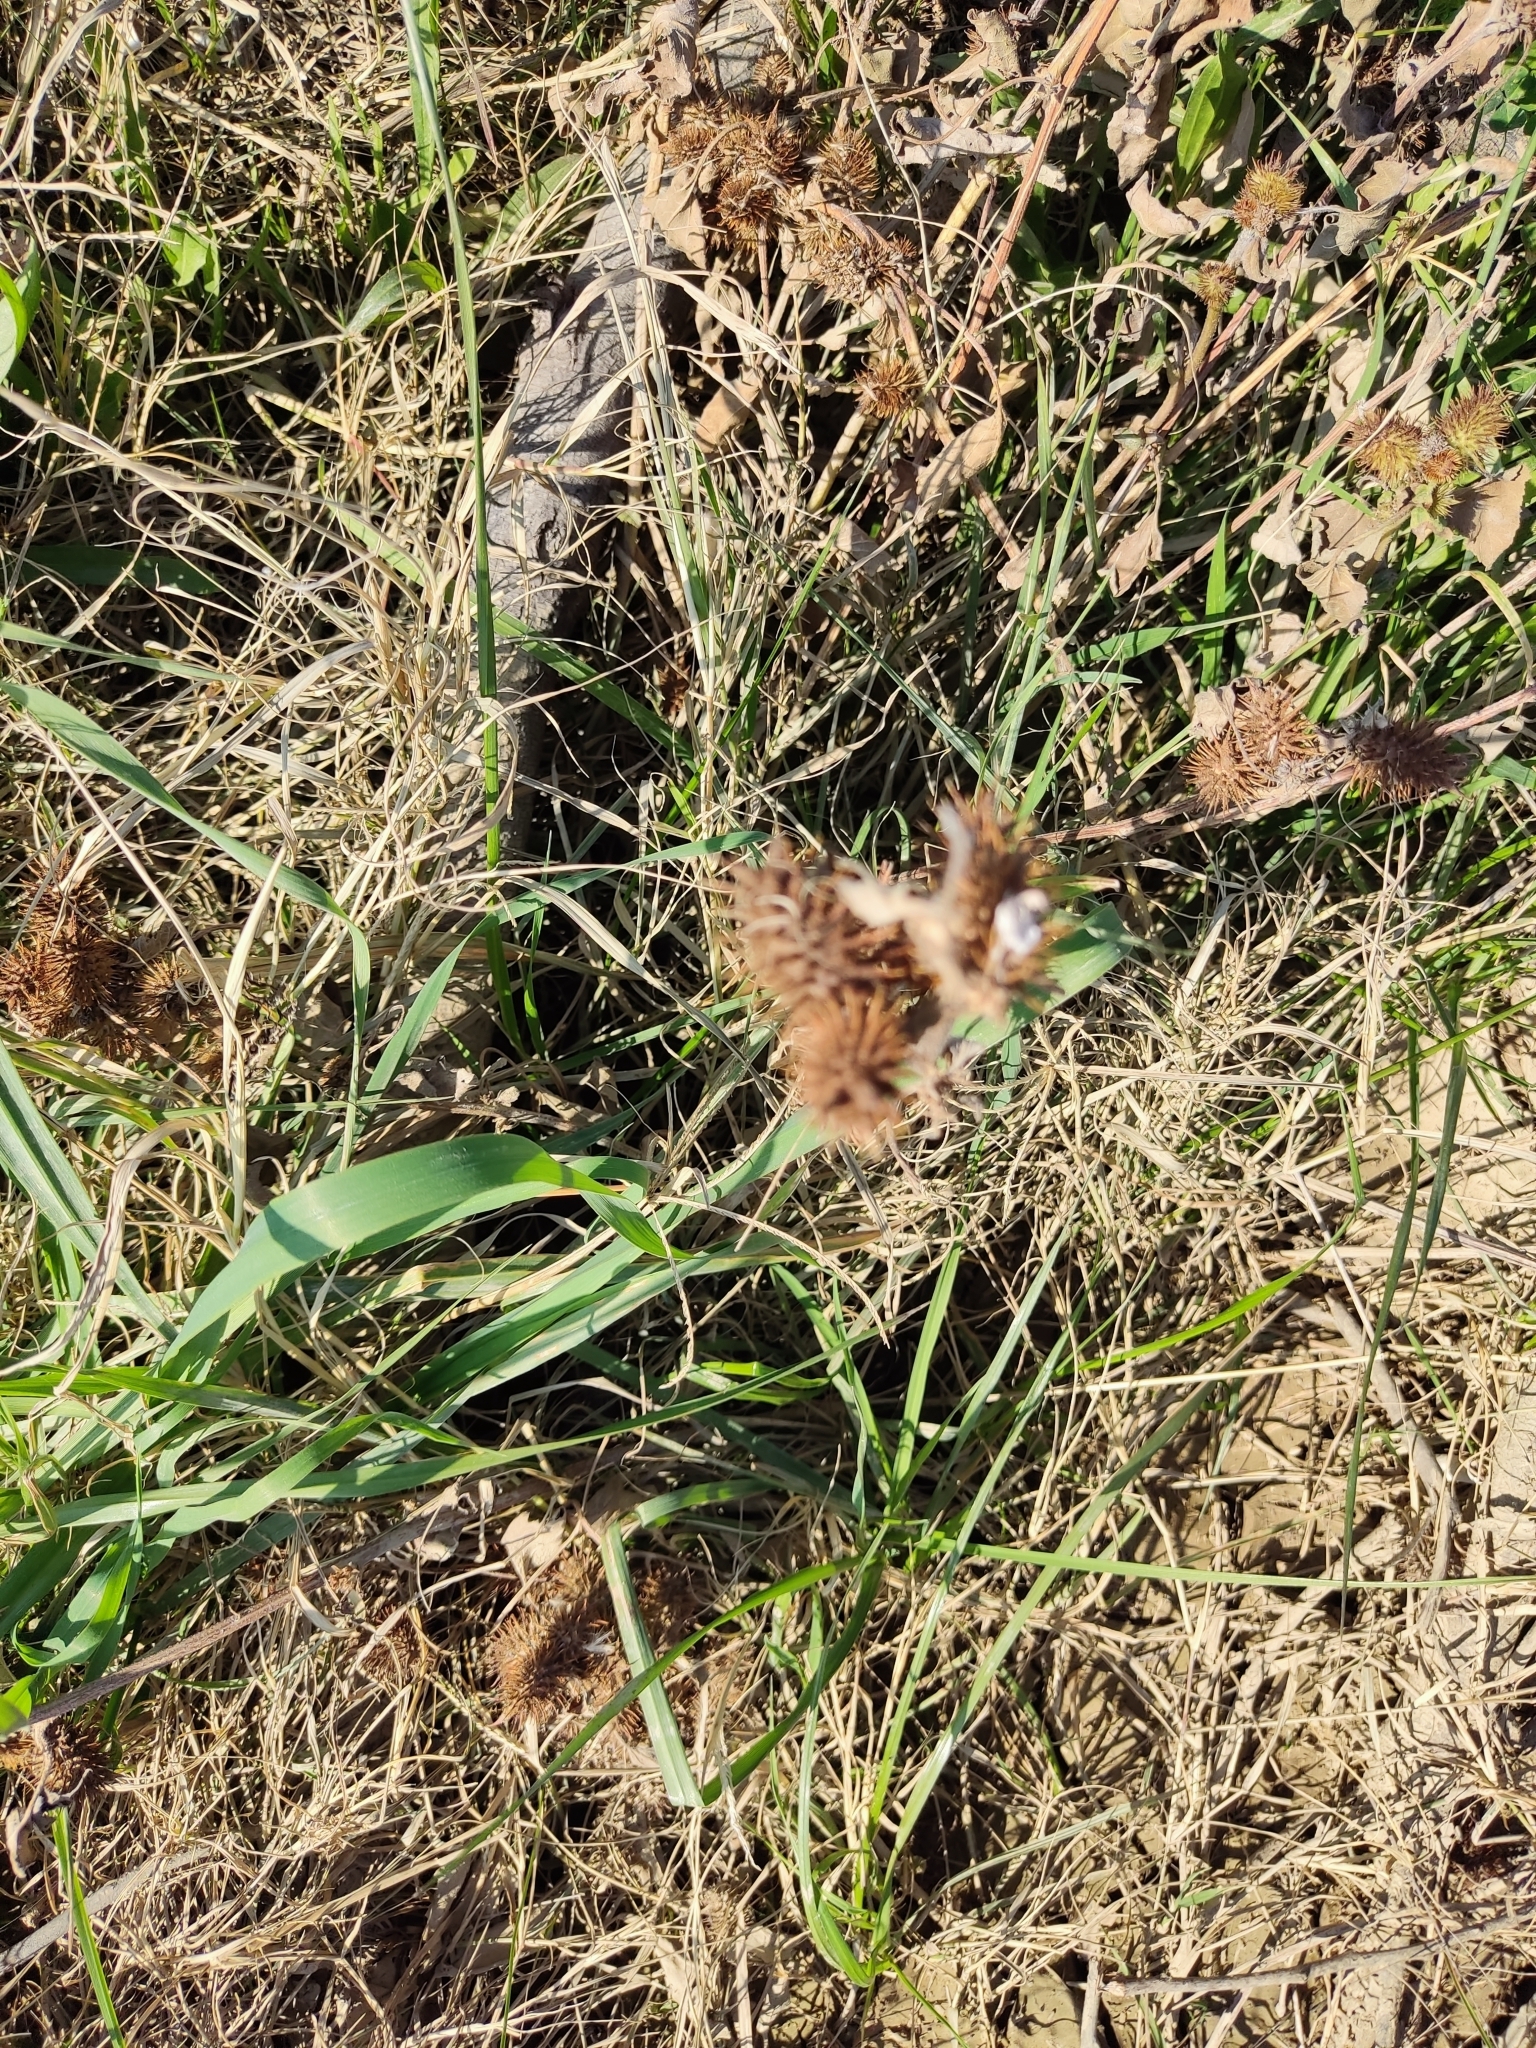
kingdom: Plantae
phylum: Tracheophyta
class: Magnoliopsida
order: Asterales
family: Asteraceae
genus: Xanthium
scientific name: Xanthium spinosum
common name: Spiny cocklebur
